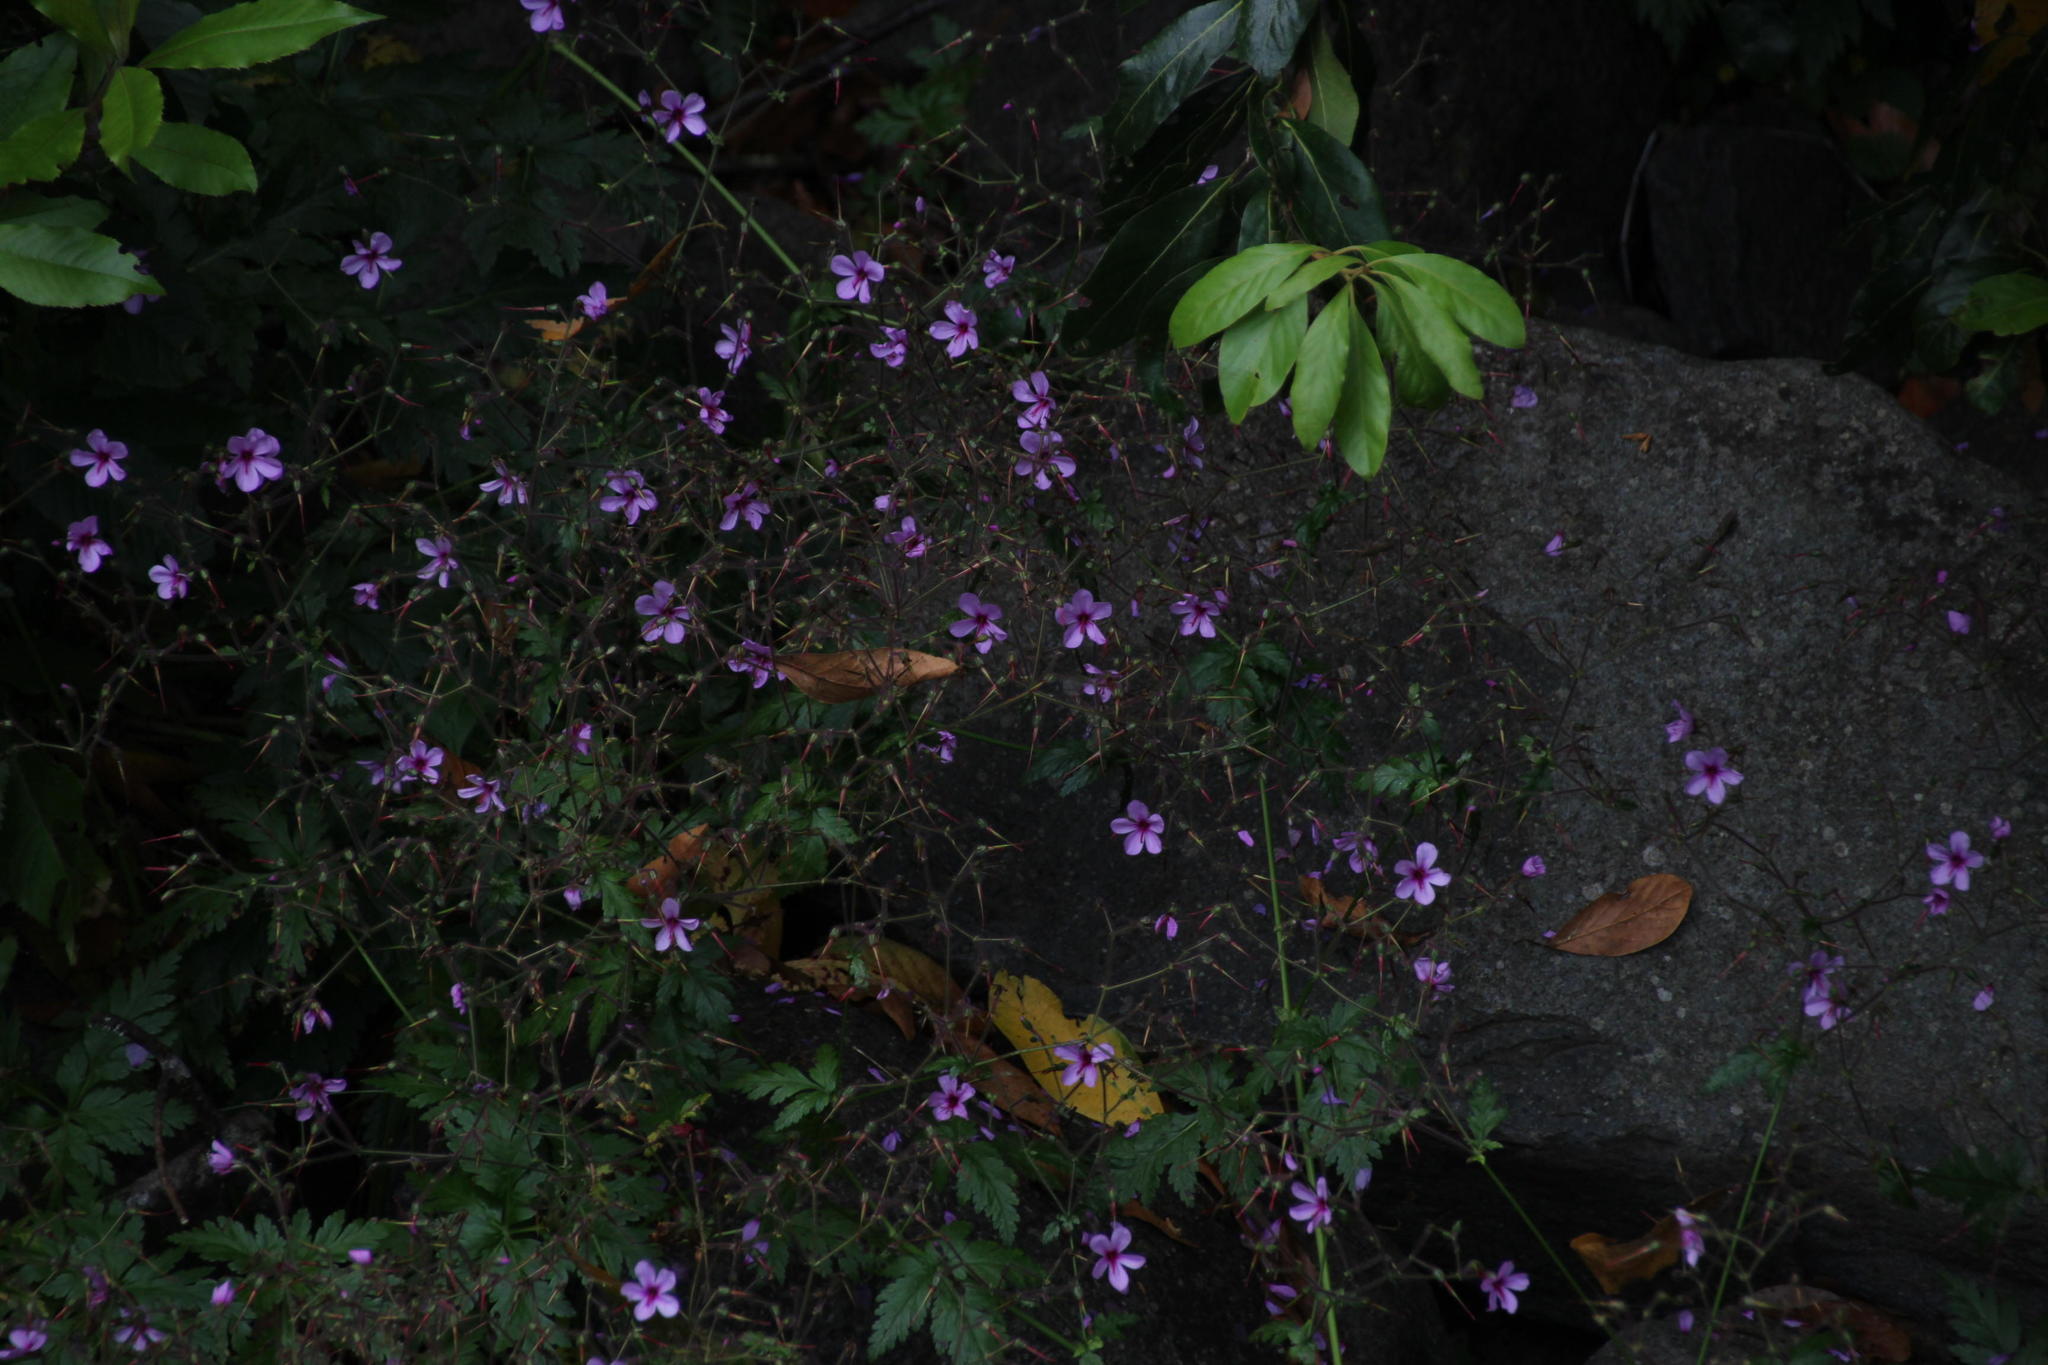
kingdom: Plantae
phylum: Tracheophyta
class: Magnoliopsida
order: Geraniales
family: Geraniaceae
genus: Geranium
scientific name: Geranium palmatum
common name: Canary island geranium
